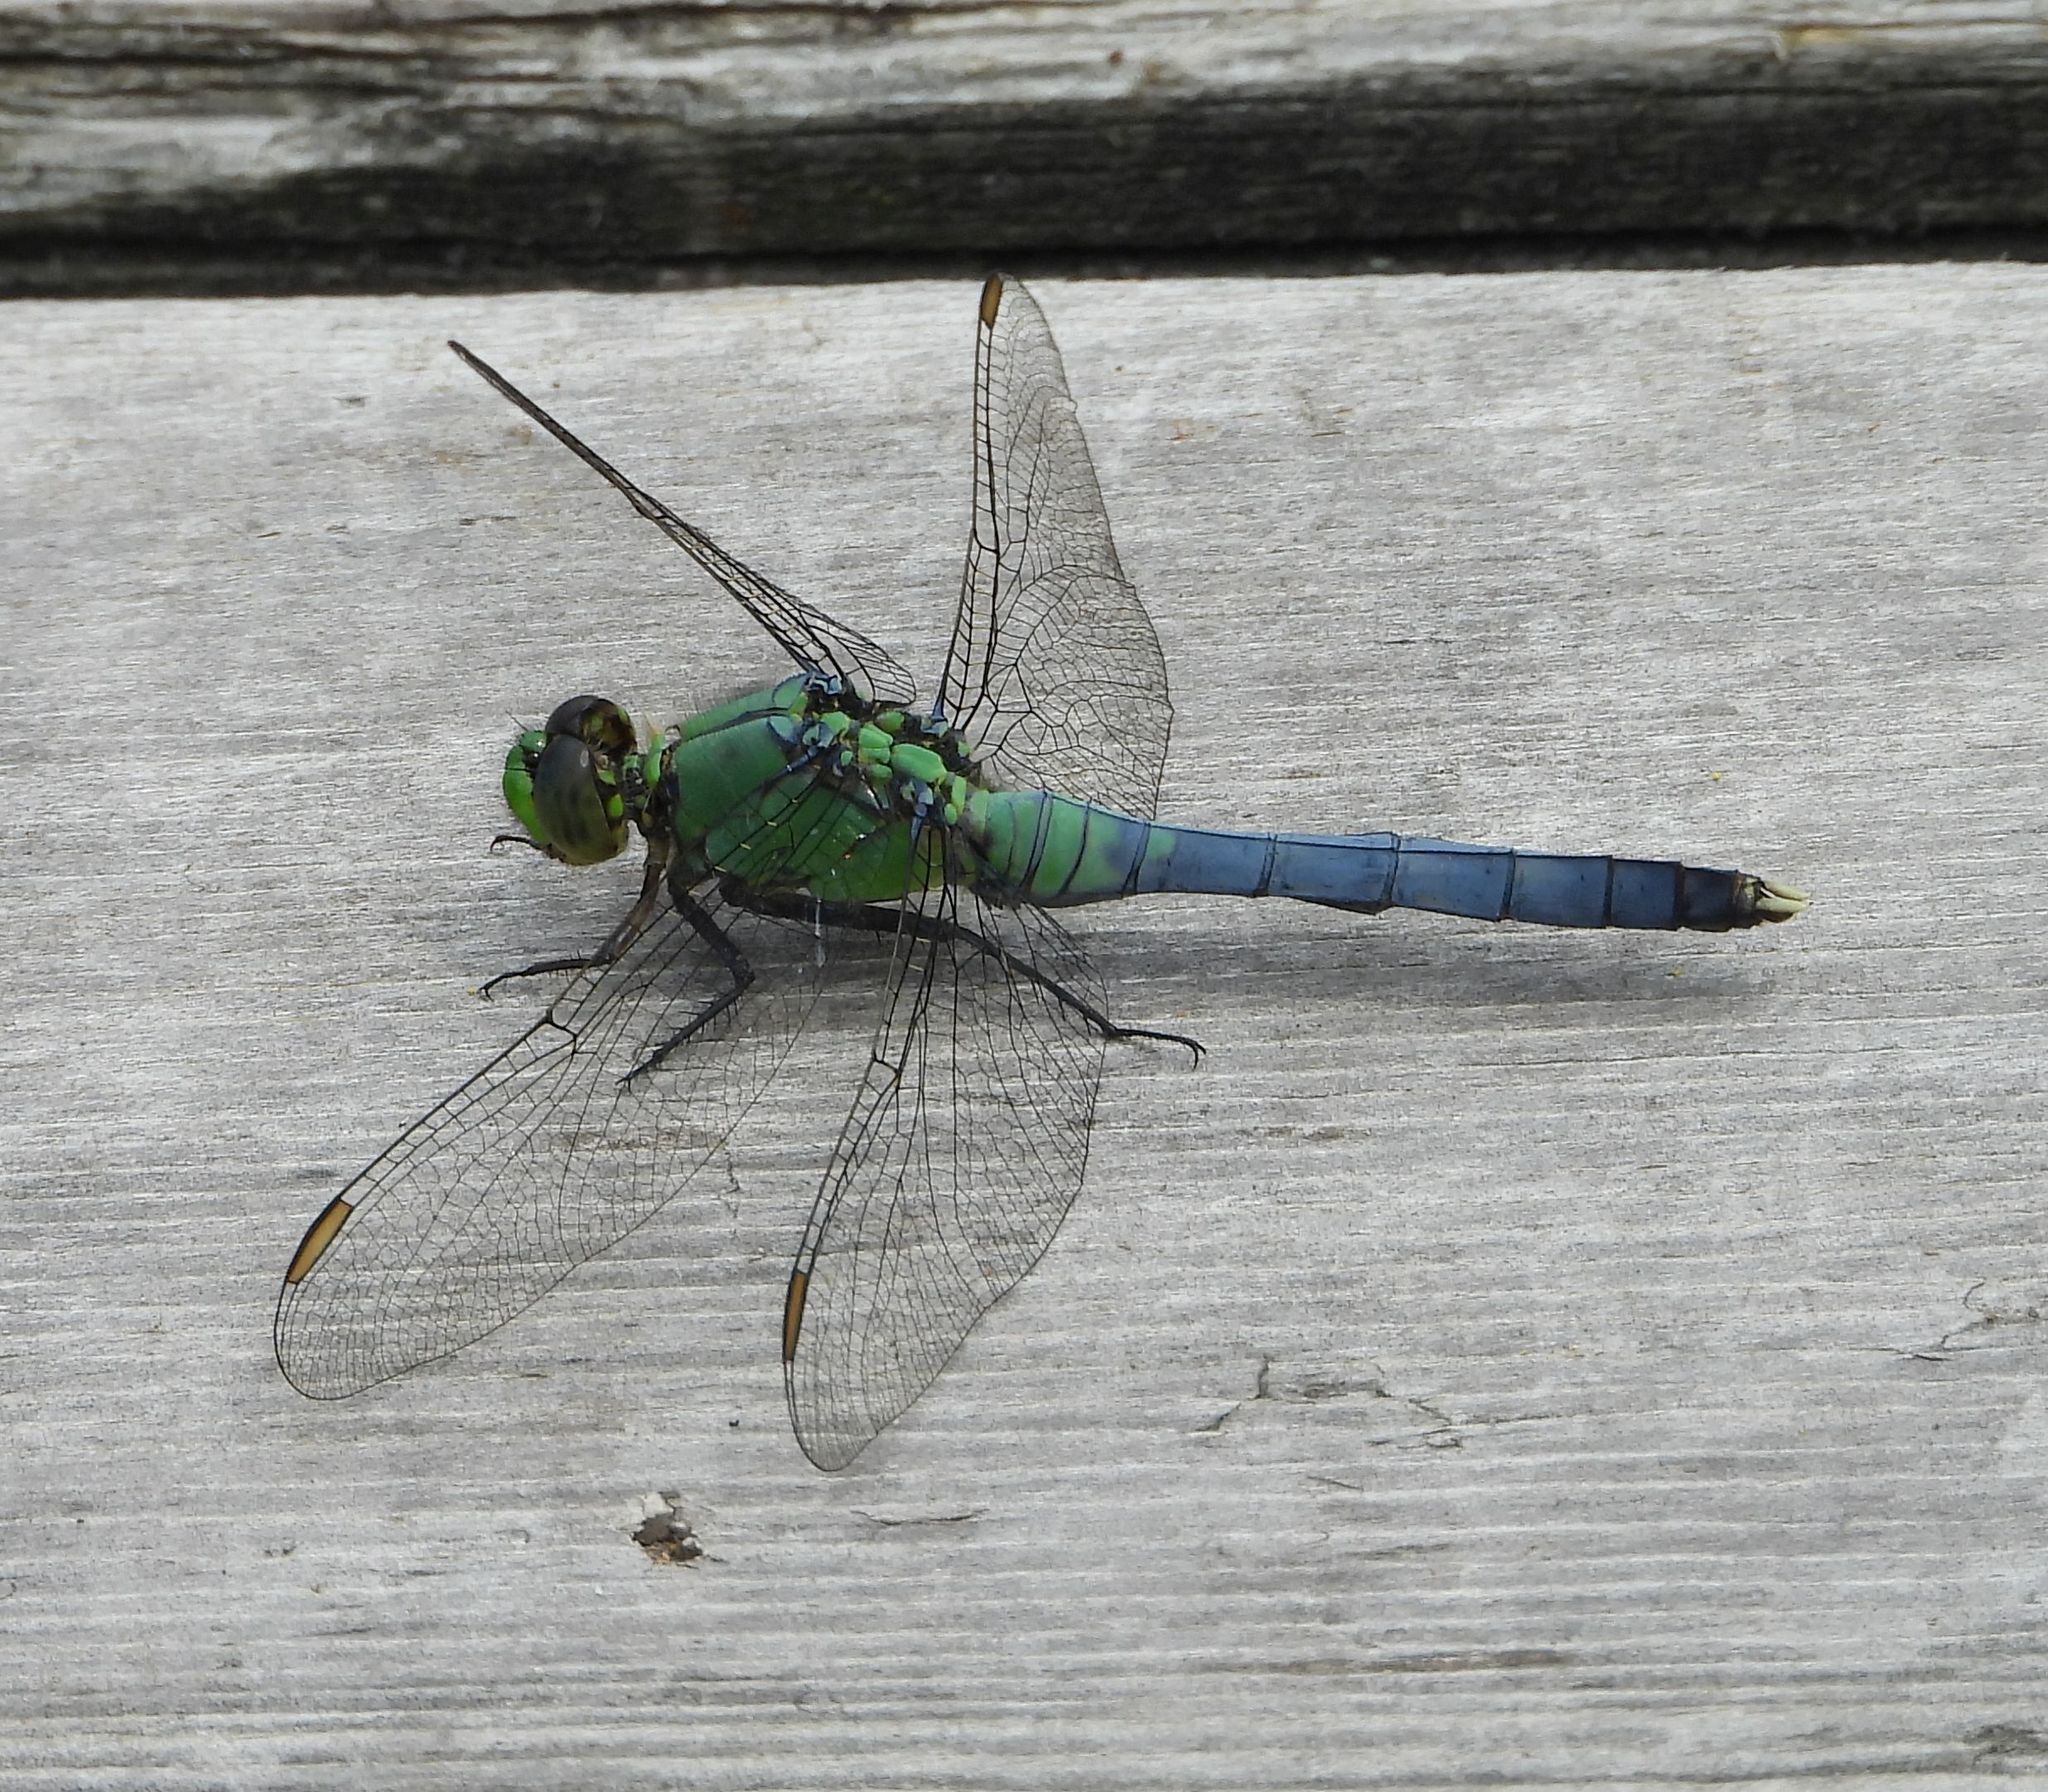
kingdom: Animalia
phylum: Arthropoda
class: Insecta
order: Odonata
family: Libellulidae
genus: Erythemis
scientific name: Erythemis simplicicollis
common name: Eastern pondhawk
